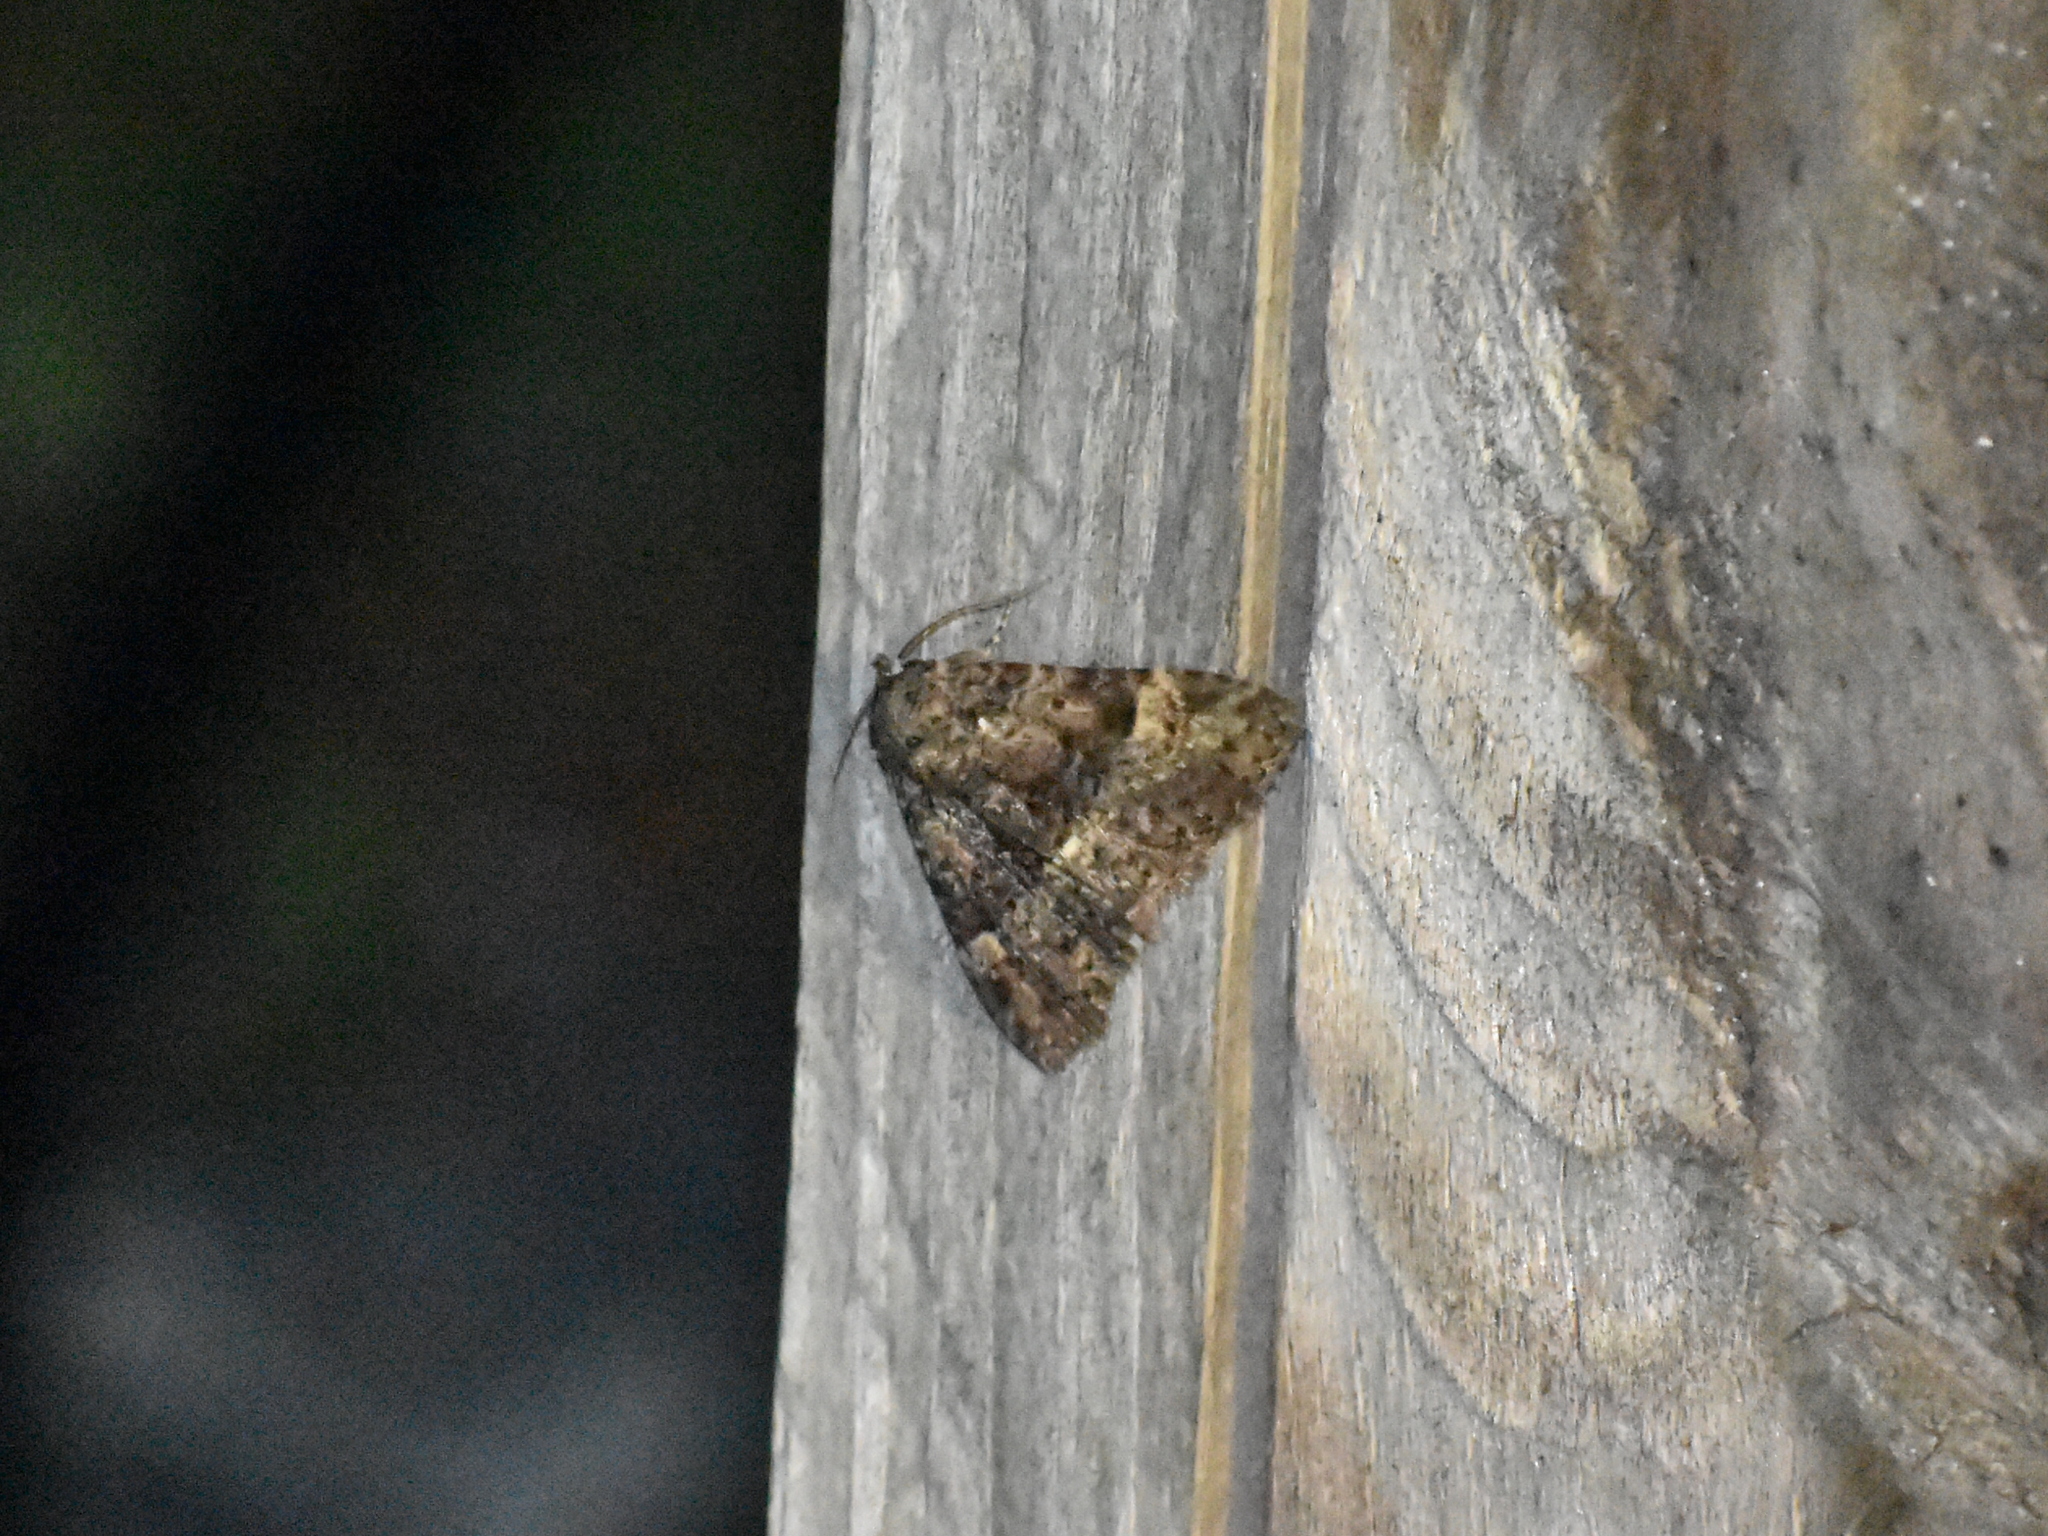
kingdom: Animalia
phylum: Arthropoda
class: Insecta
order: Lepidoptera
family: Erebidae
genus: Metalectra
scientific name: Metalectra discalis
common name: Common fungus moth
